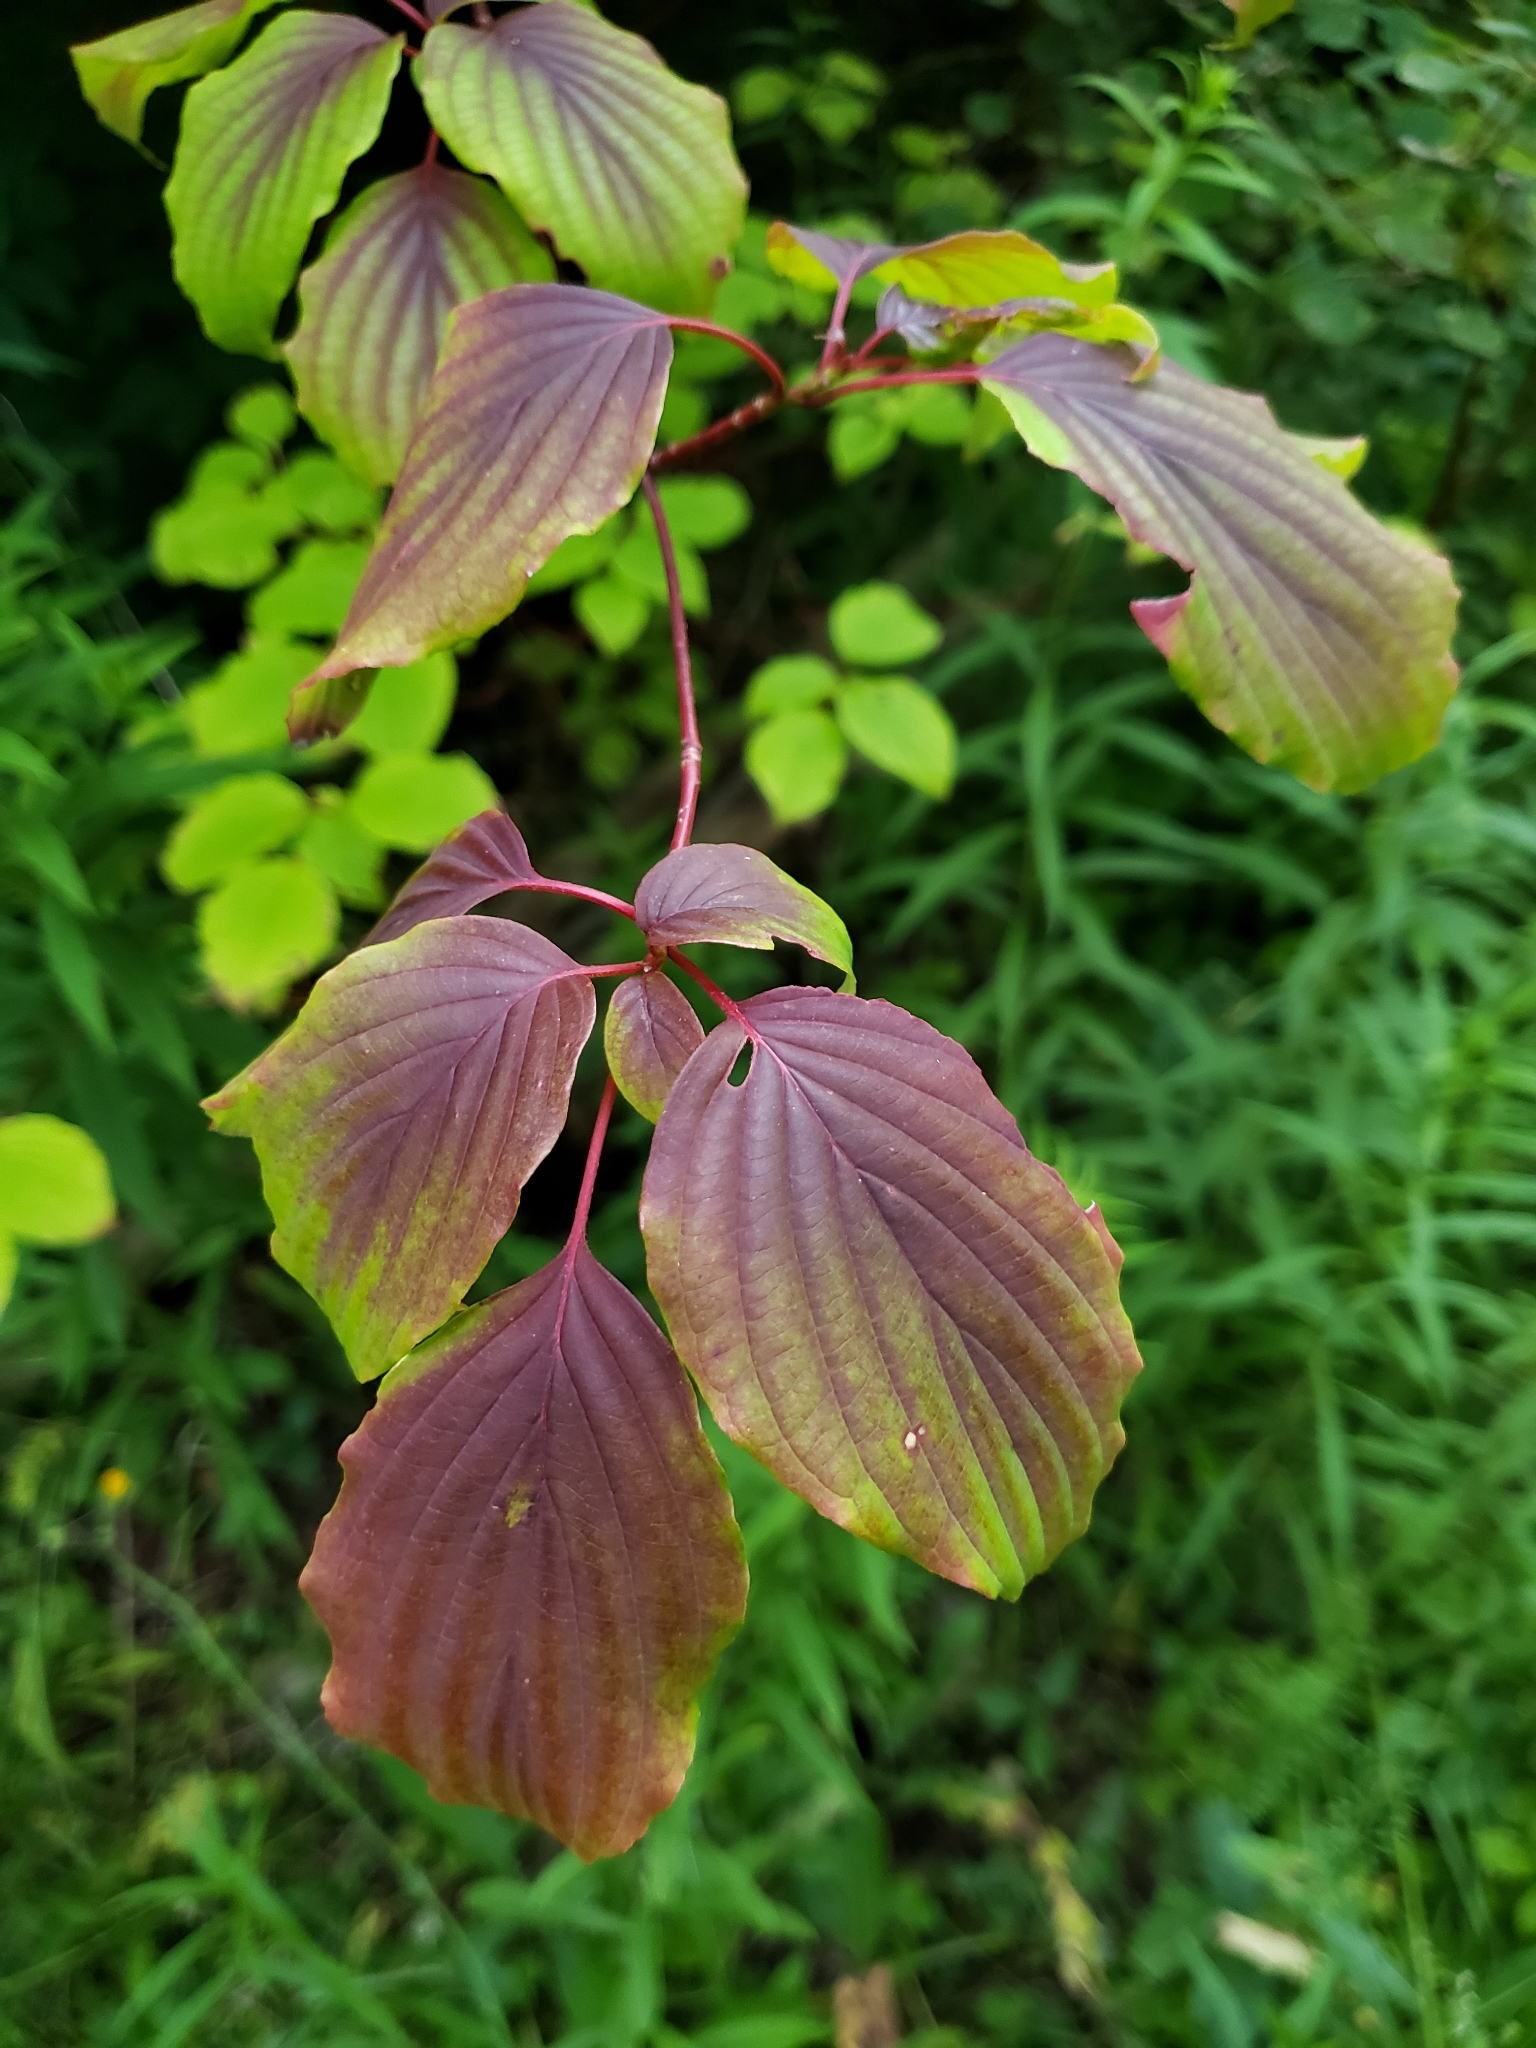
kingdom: Plantae
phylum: Tracheophyta
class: Magnoliopsida
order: Cornales
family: Cornaceae
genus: Cornus
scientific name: Cornus alternifolia
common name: Pagoda dogwood
